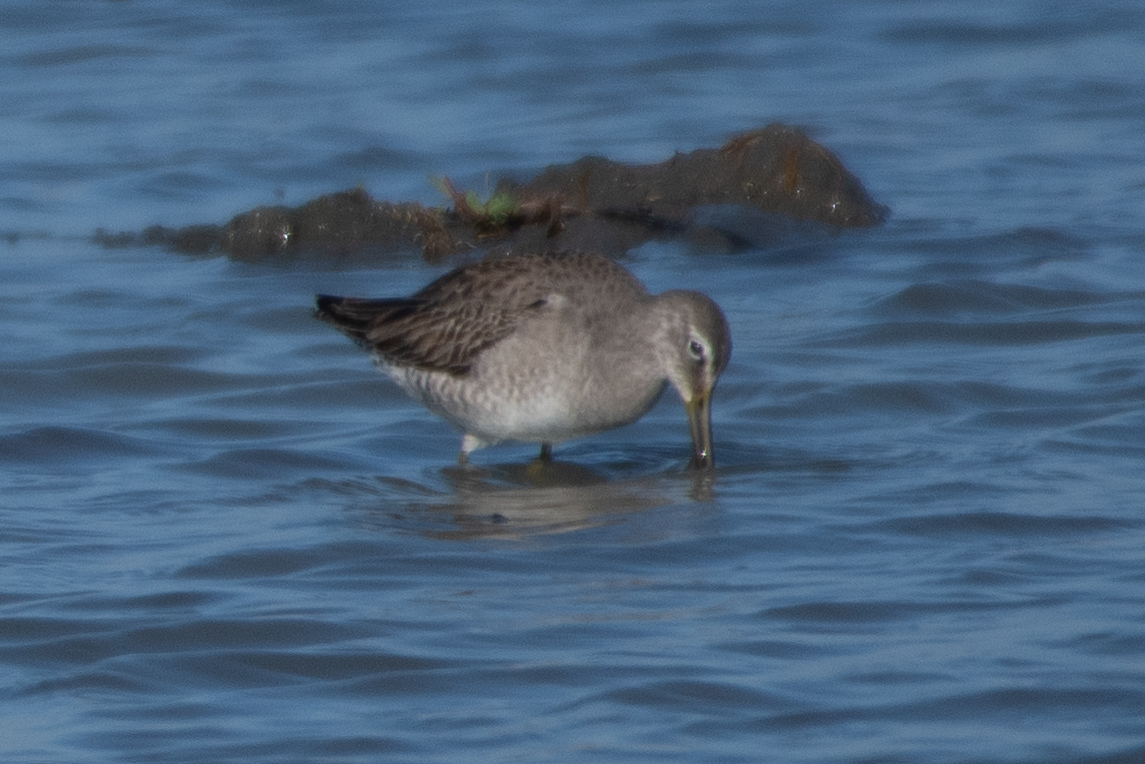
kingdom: Animalia
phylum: Chordata
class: Aves
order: Charadriiformes
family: Scolopacidae
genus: Limnodromus
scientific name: Limnodromus scolopaceus
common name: Long-billed dowitcher
